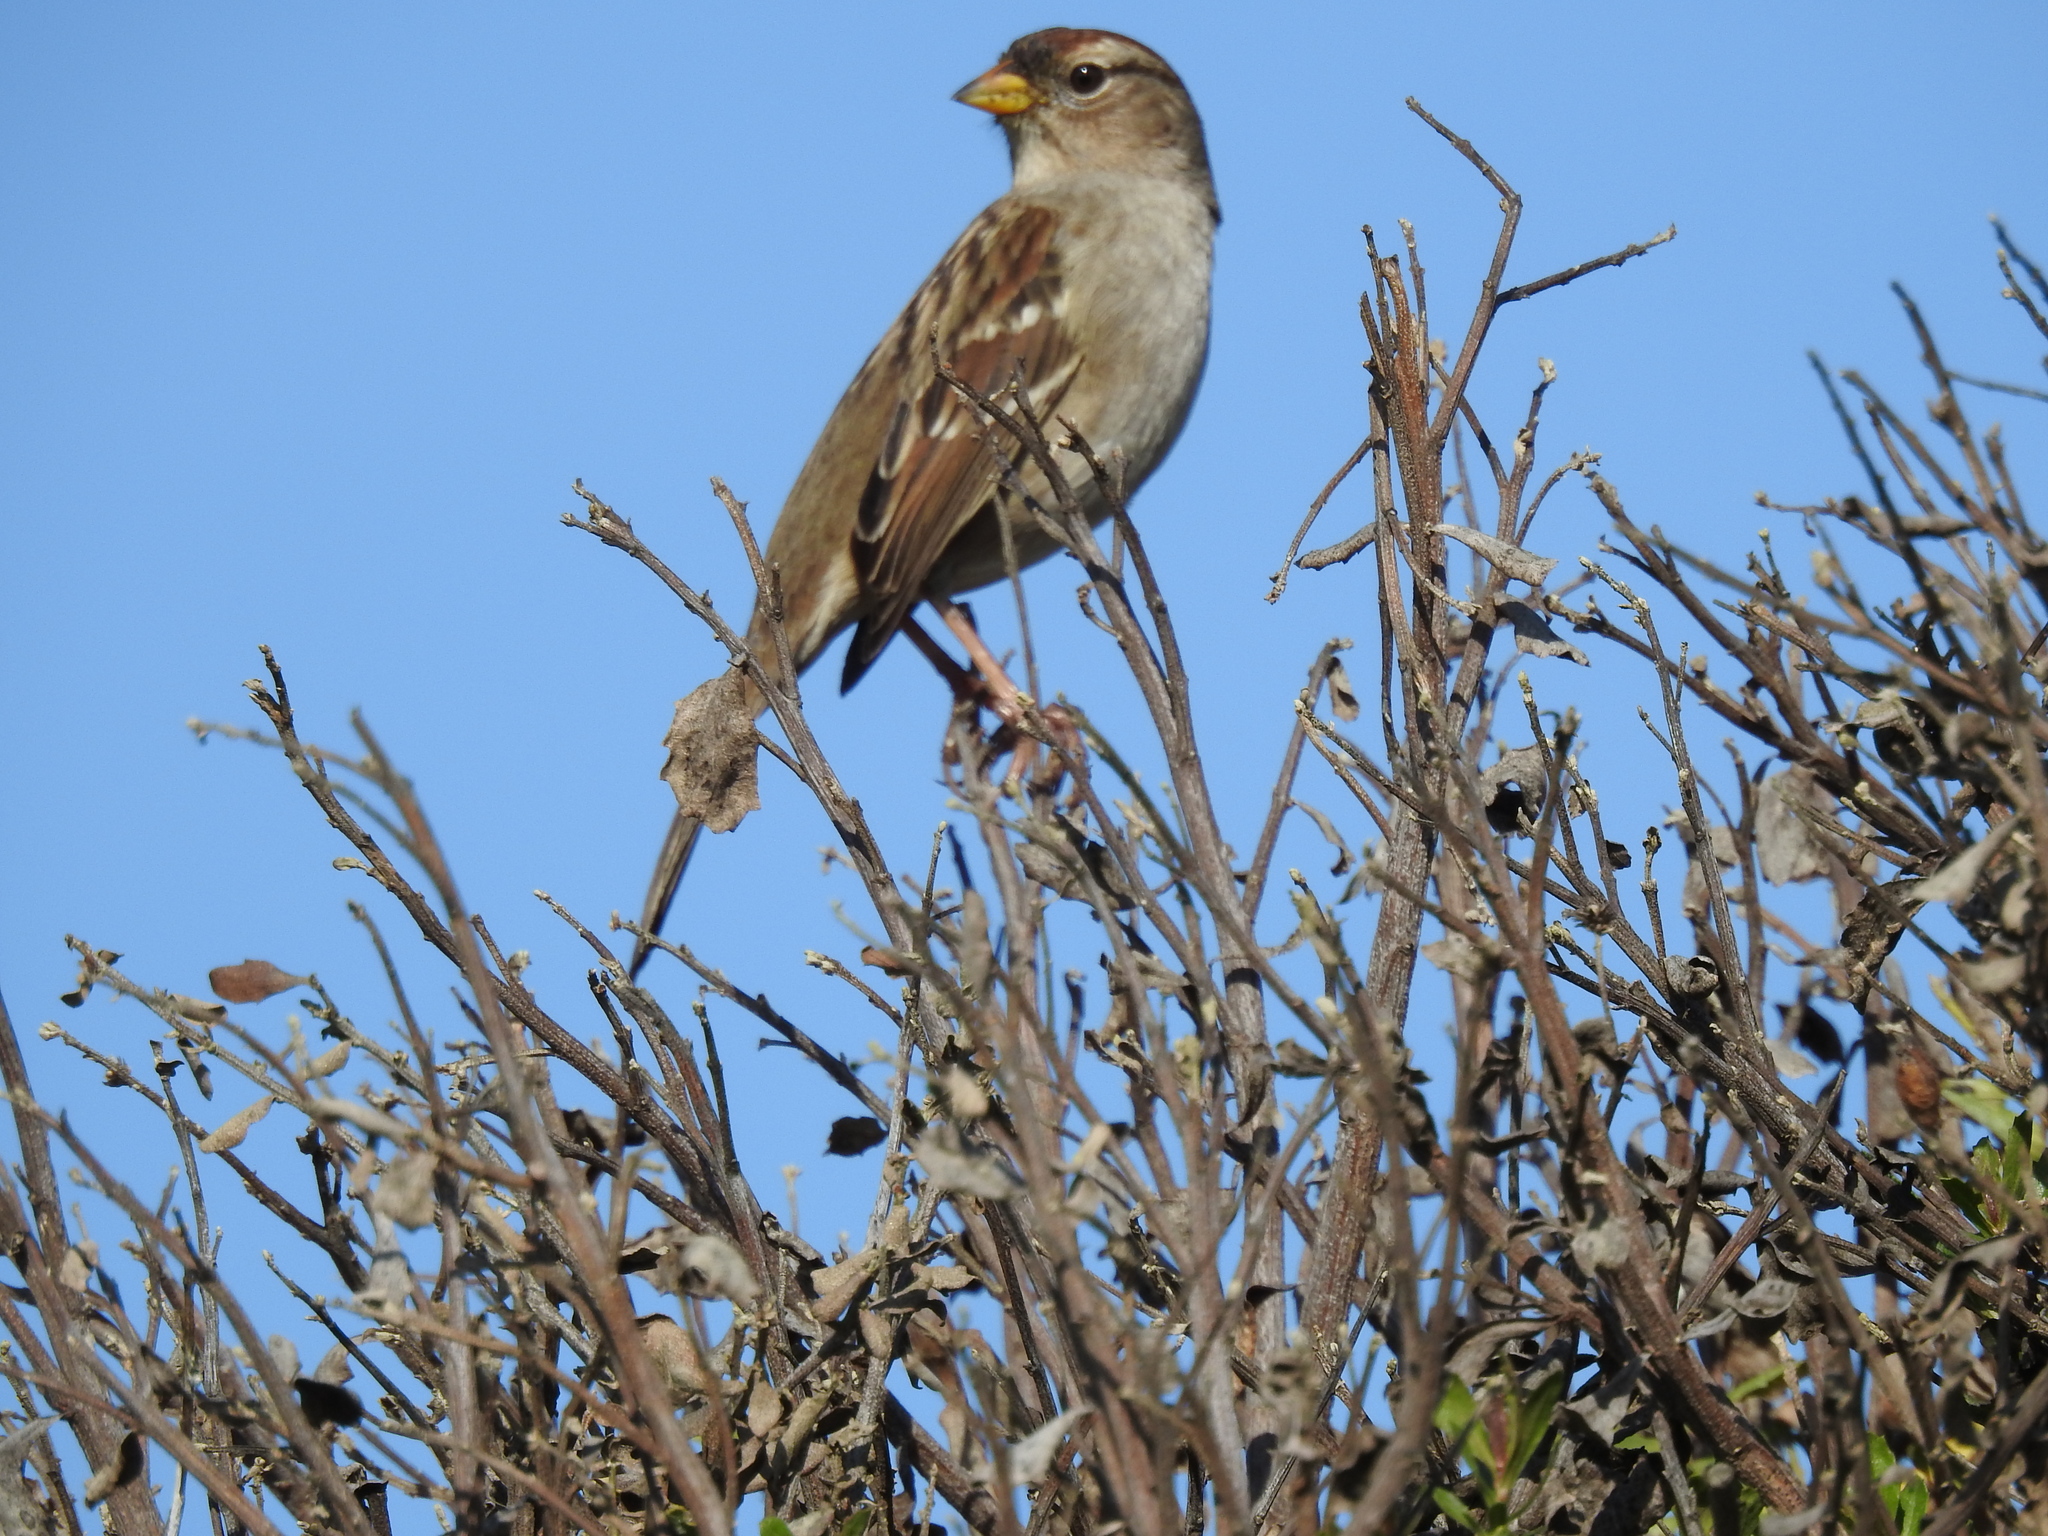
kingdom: Animalia
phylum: Chordata
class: Aves
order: Passeriformes
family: Passerellidae
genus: Zonotrichia
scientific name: Zonotrichia leucophrys
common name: White-crowned sparrow
